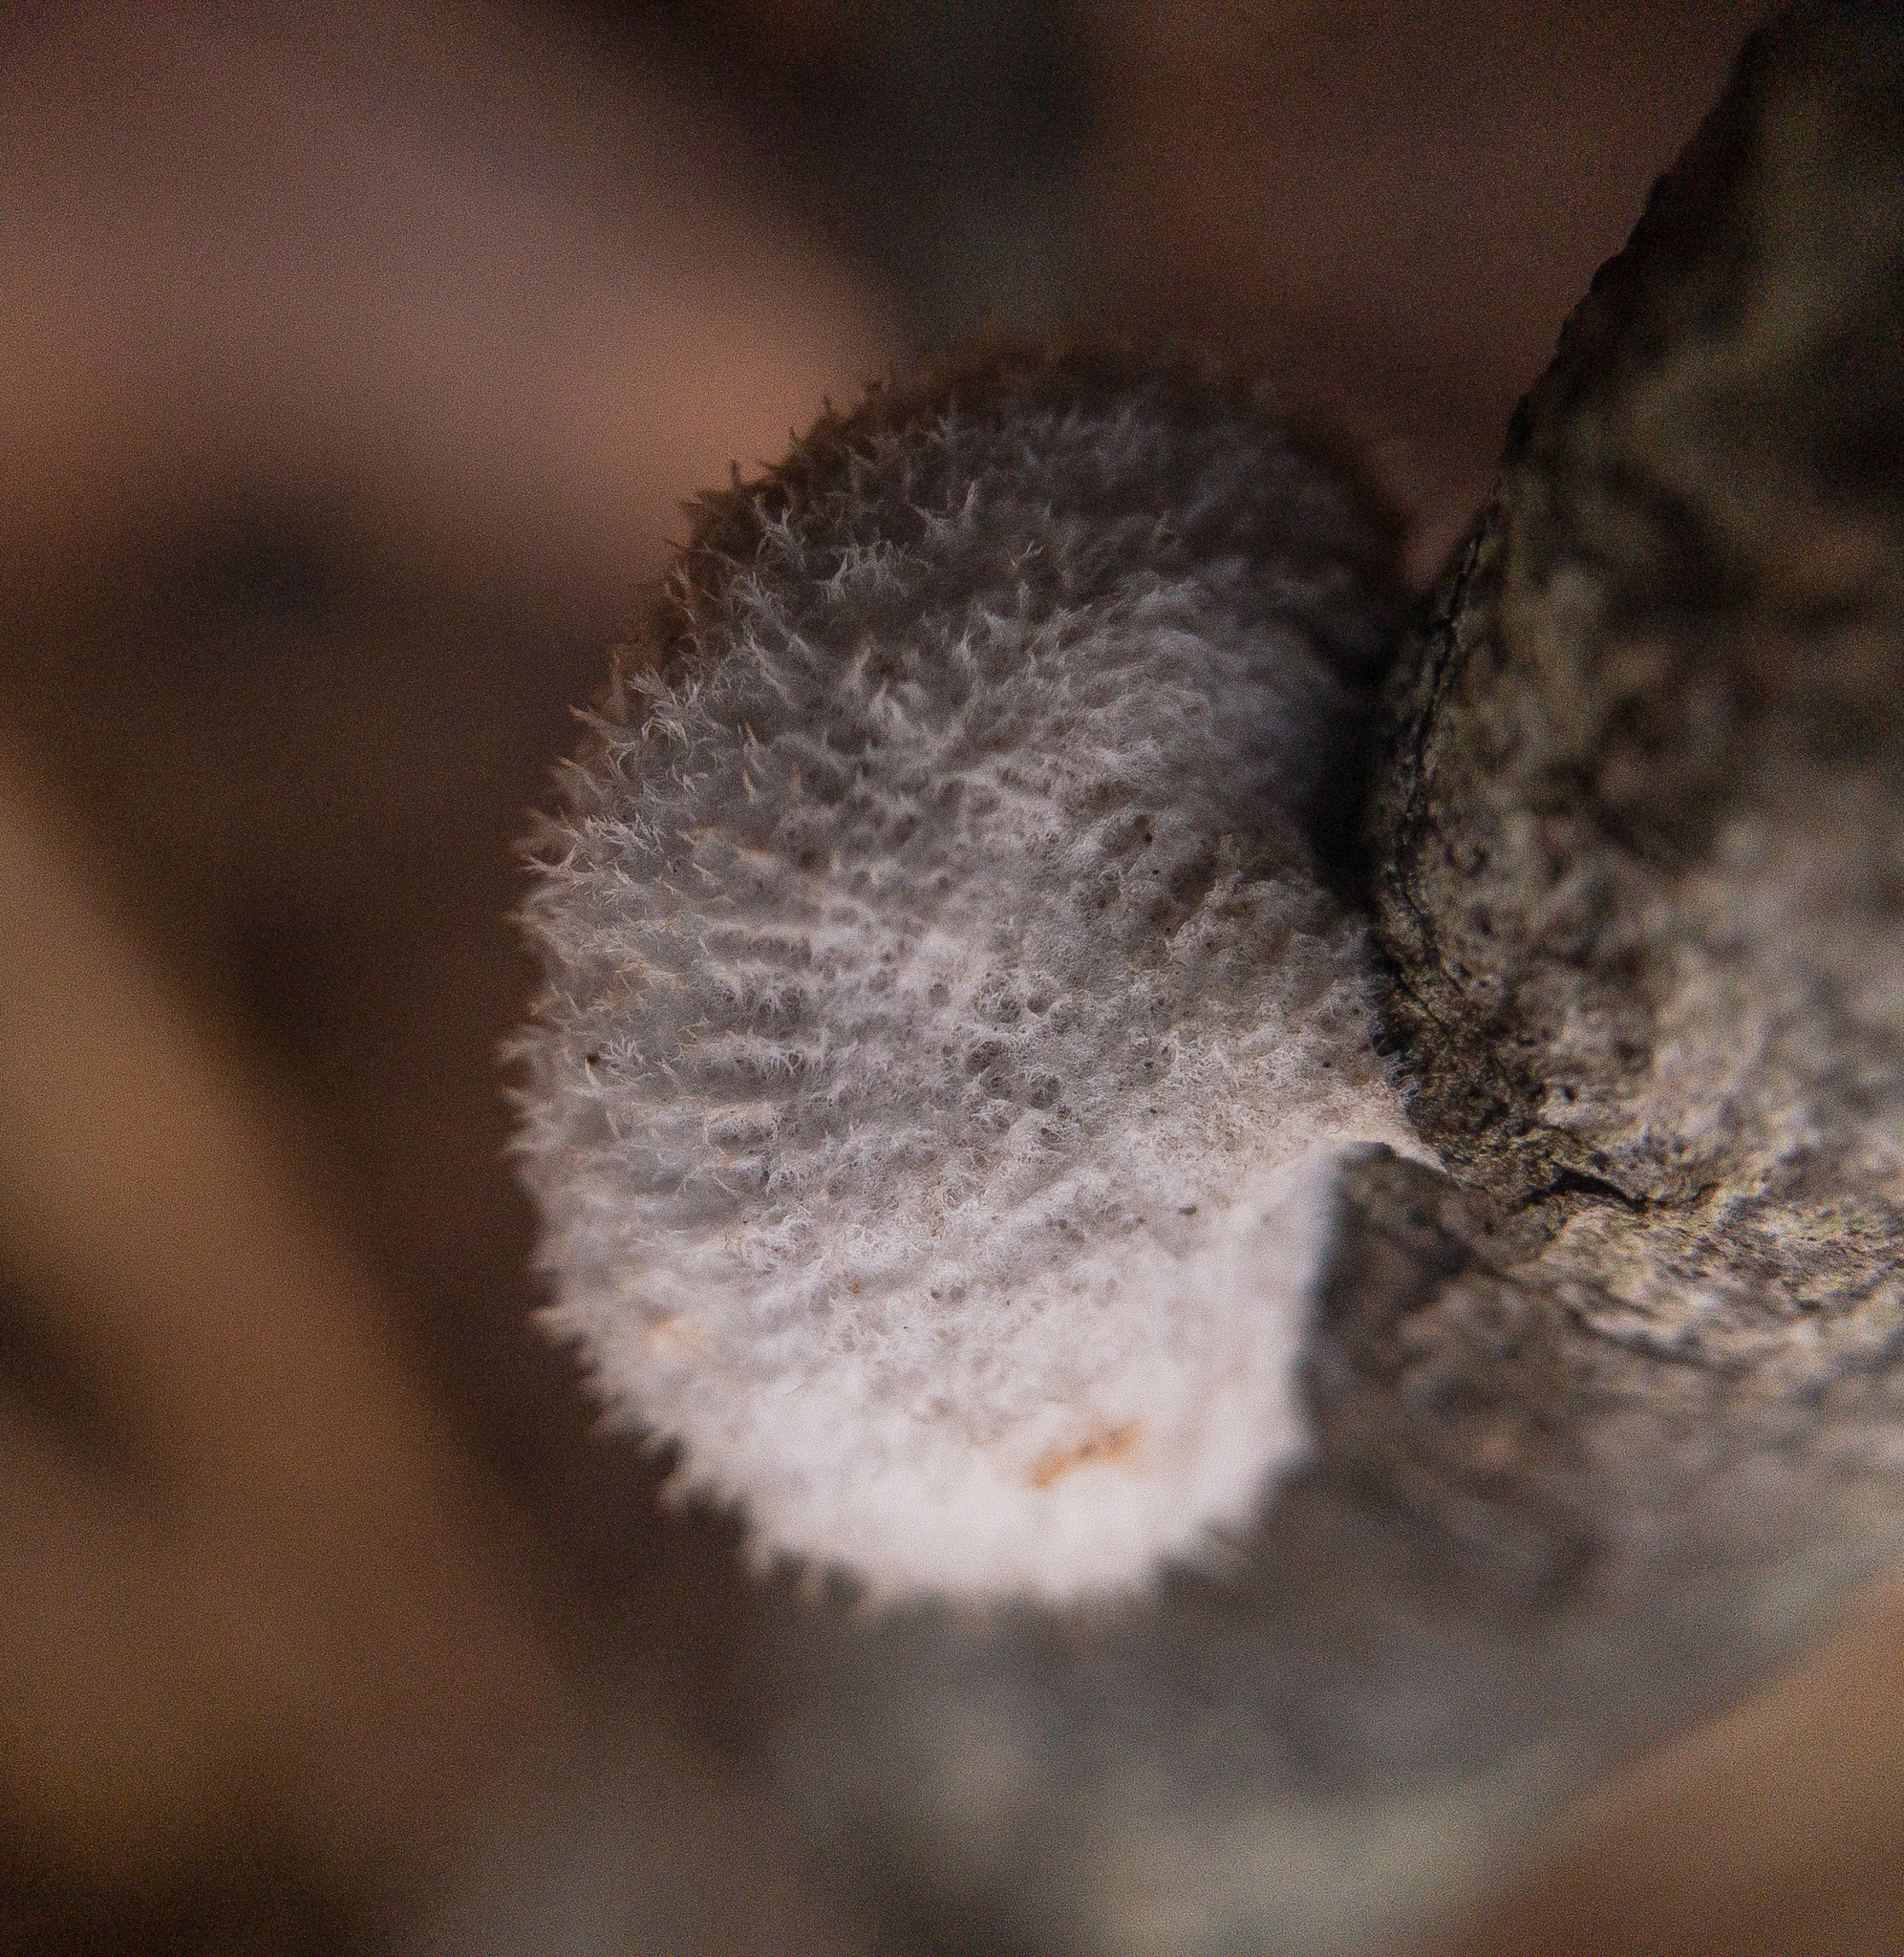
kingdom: Fungi
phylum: Basidiomycota
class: Agaricomycetes
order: Agaricales
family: Schizophyllaceae
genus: Schizophyllum
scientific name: Schizophyllum commune
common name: Common porecrust
